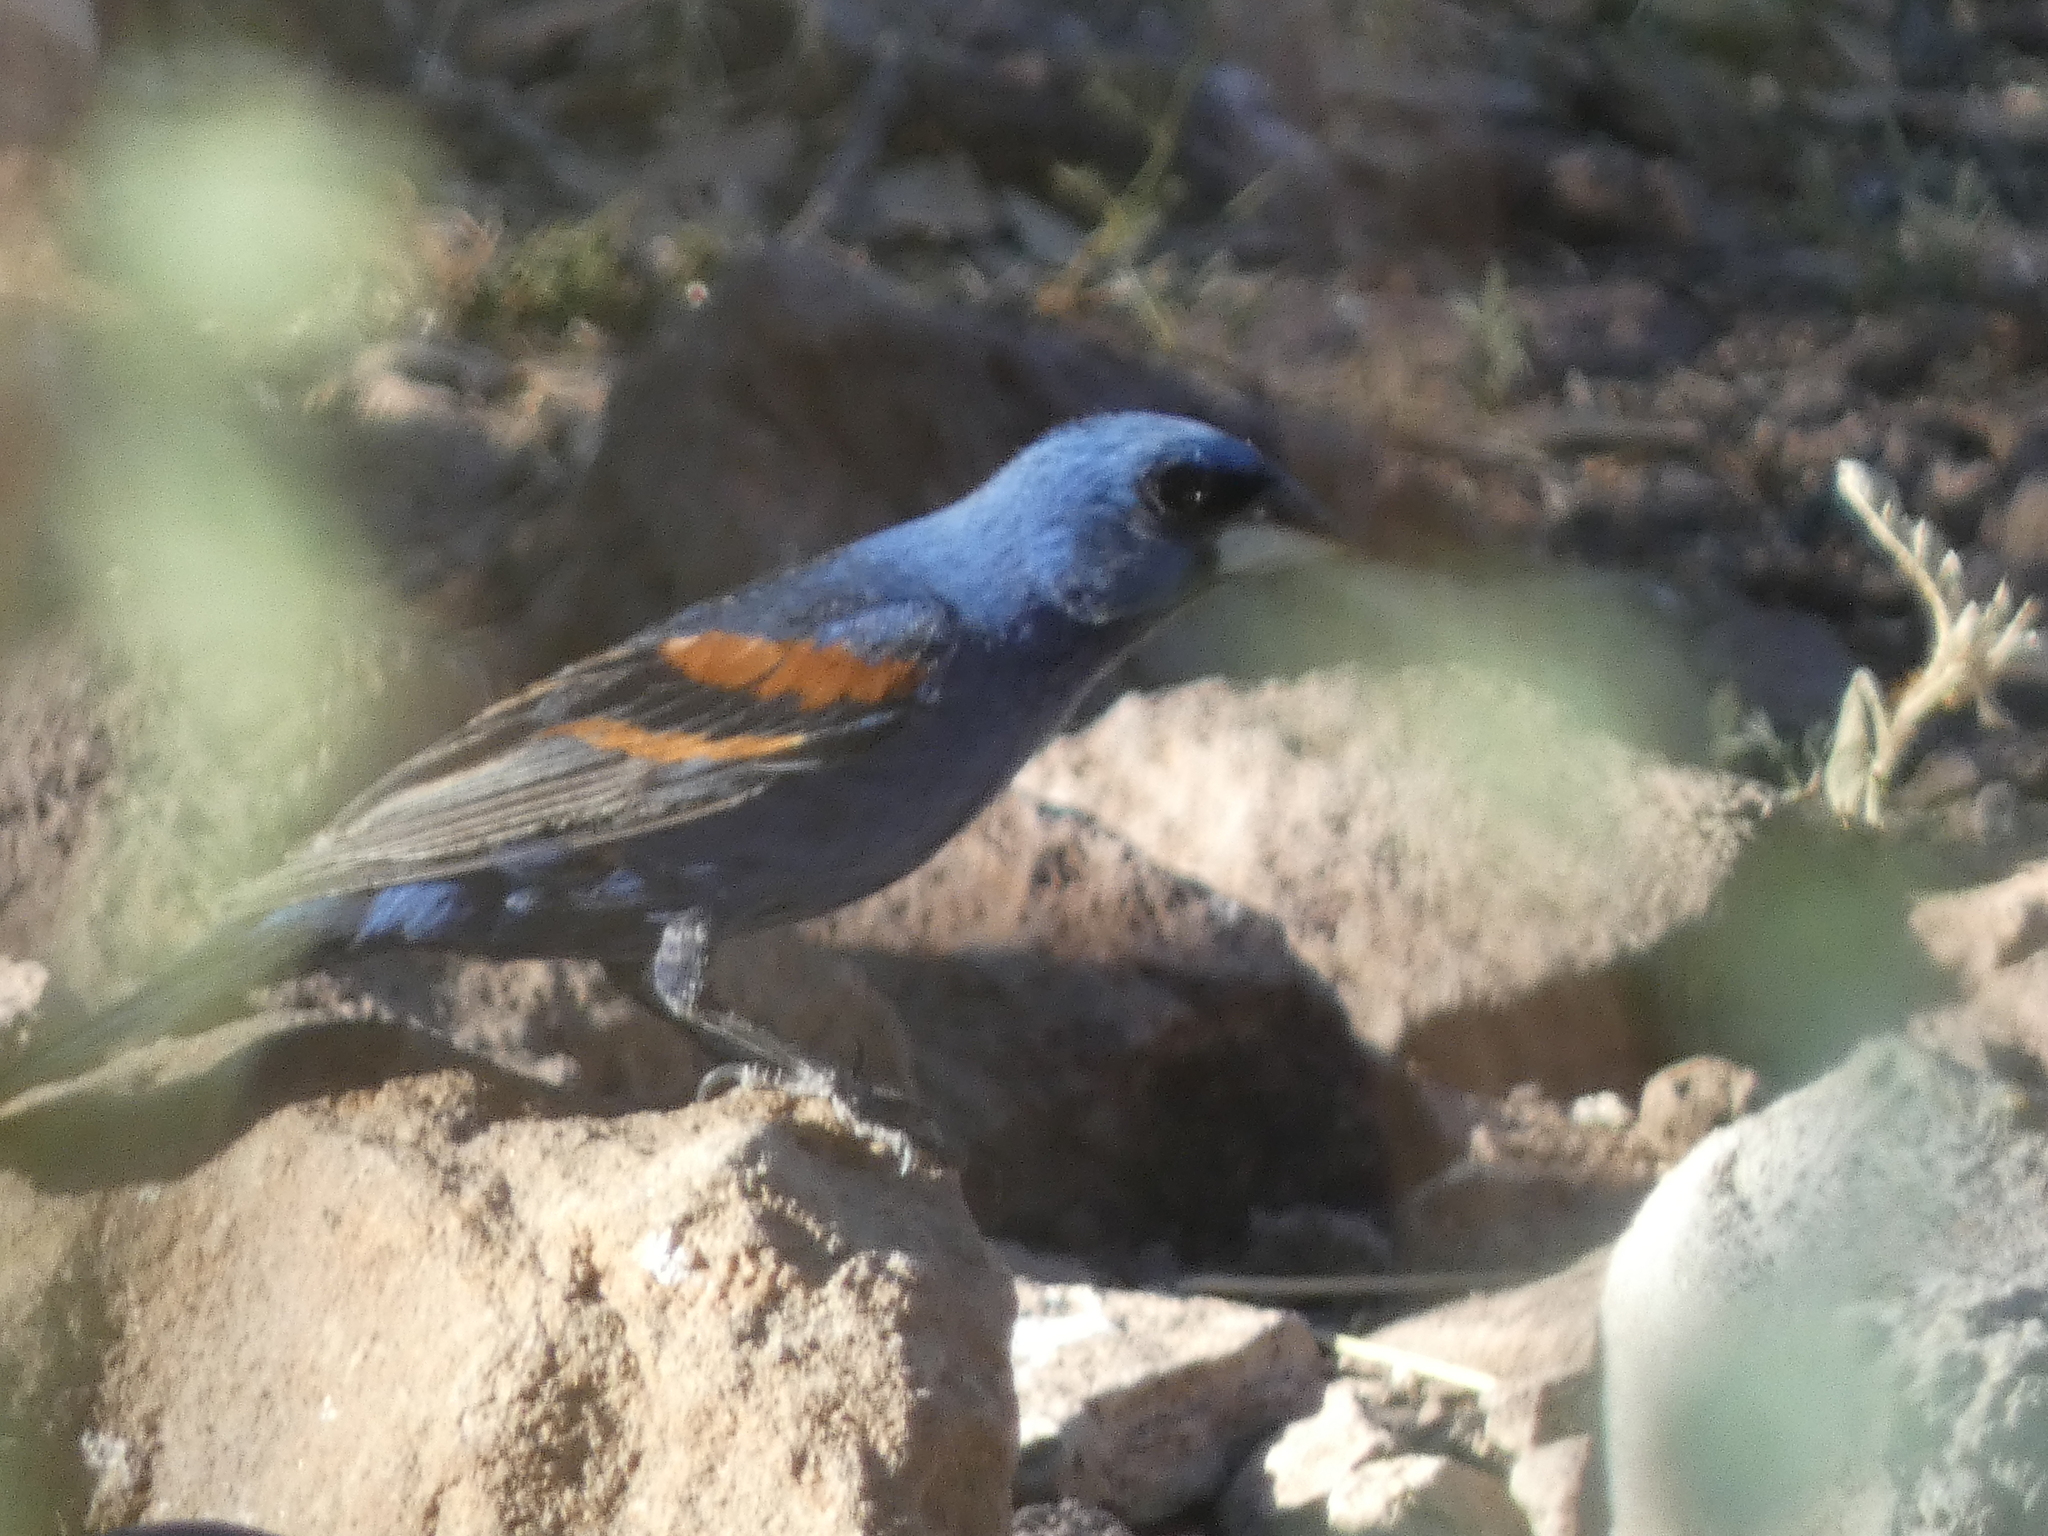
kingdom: Animalia
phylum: Chordata
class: Aves
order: Passeriformes
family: Cardinalidae
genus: Passerina
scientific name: Passerina caerulea
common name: Blue grosbeak
